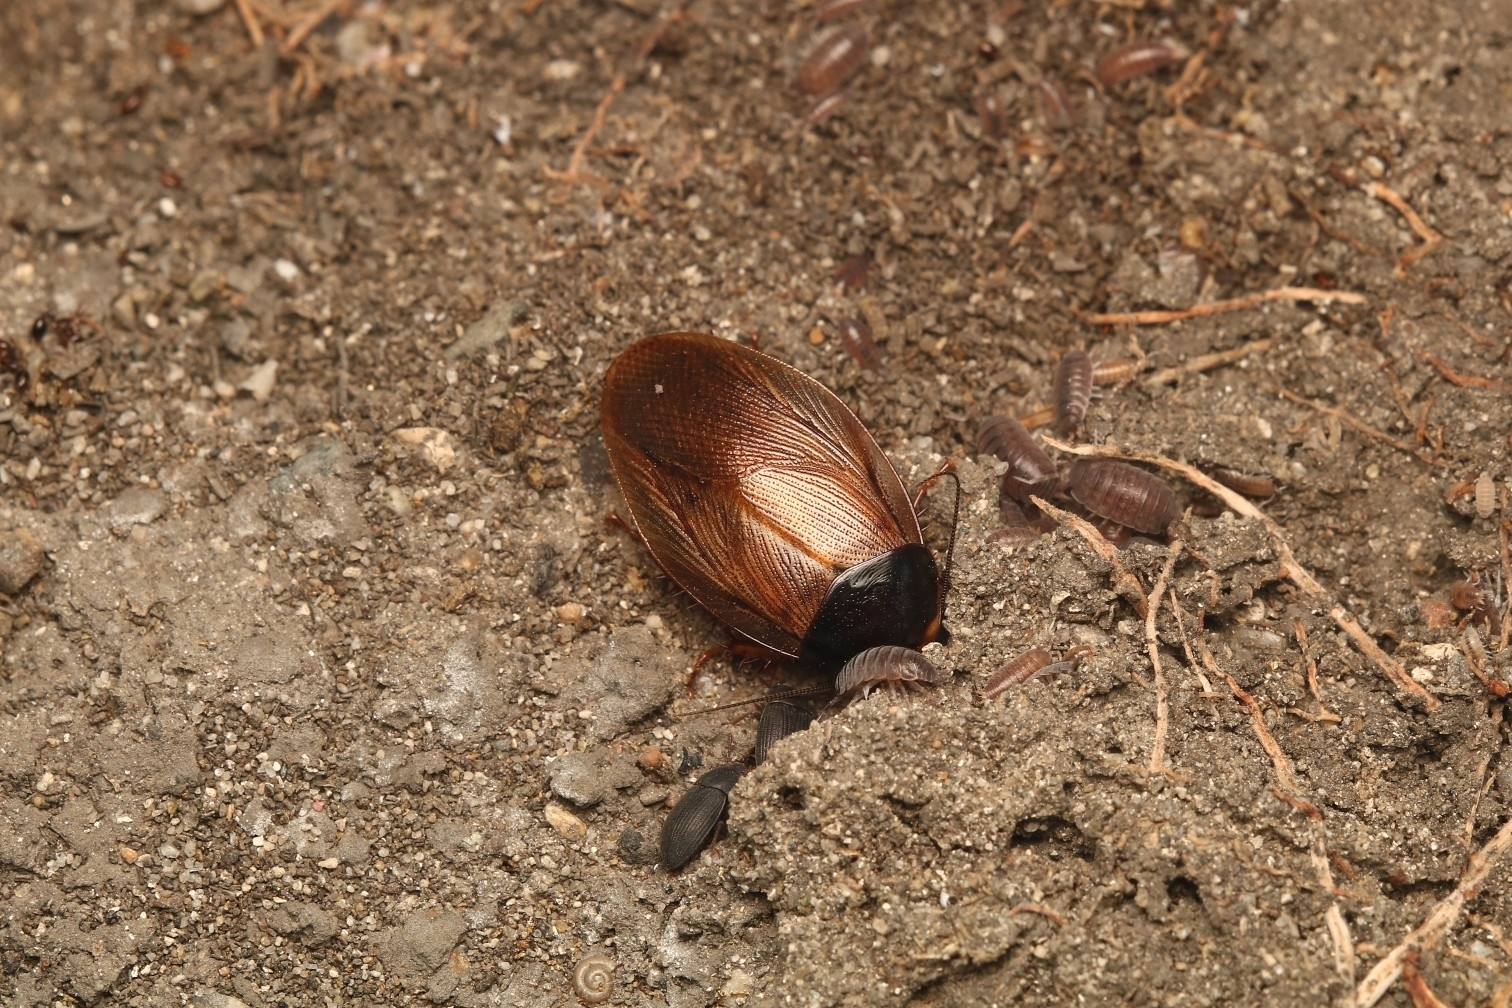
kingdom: Animalia
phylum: Arthropoda
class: Insecta
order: Blattodea
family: Blaberidae
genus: Pycnoscelus
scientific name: Pycnoscelus surinamensis
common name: Surinam cockroach
